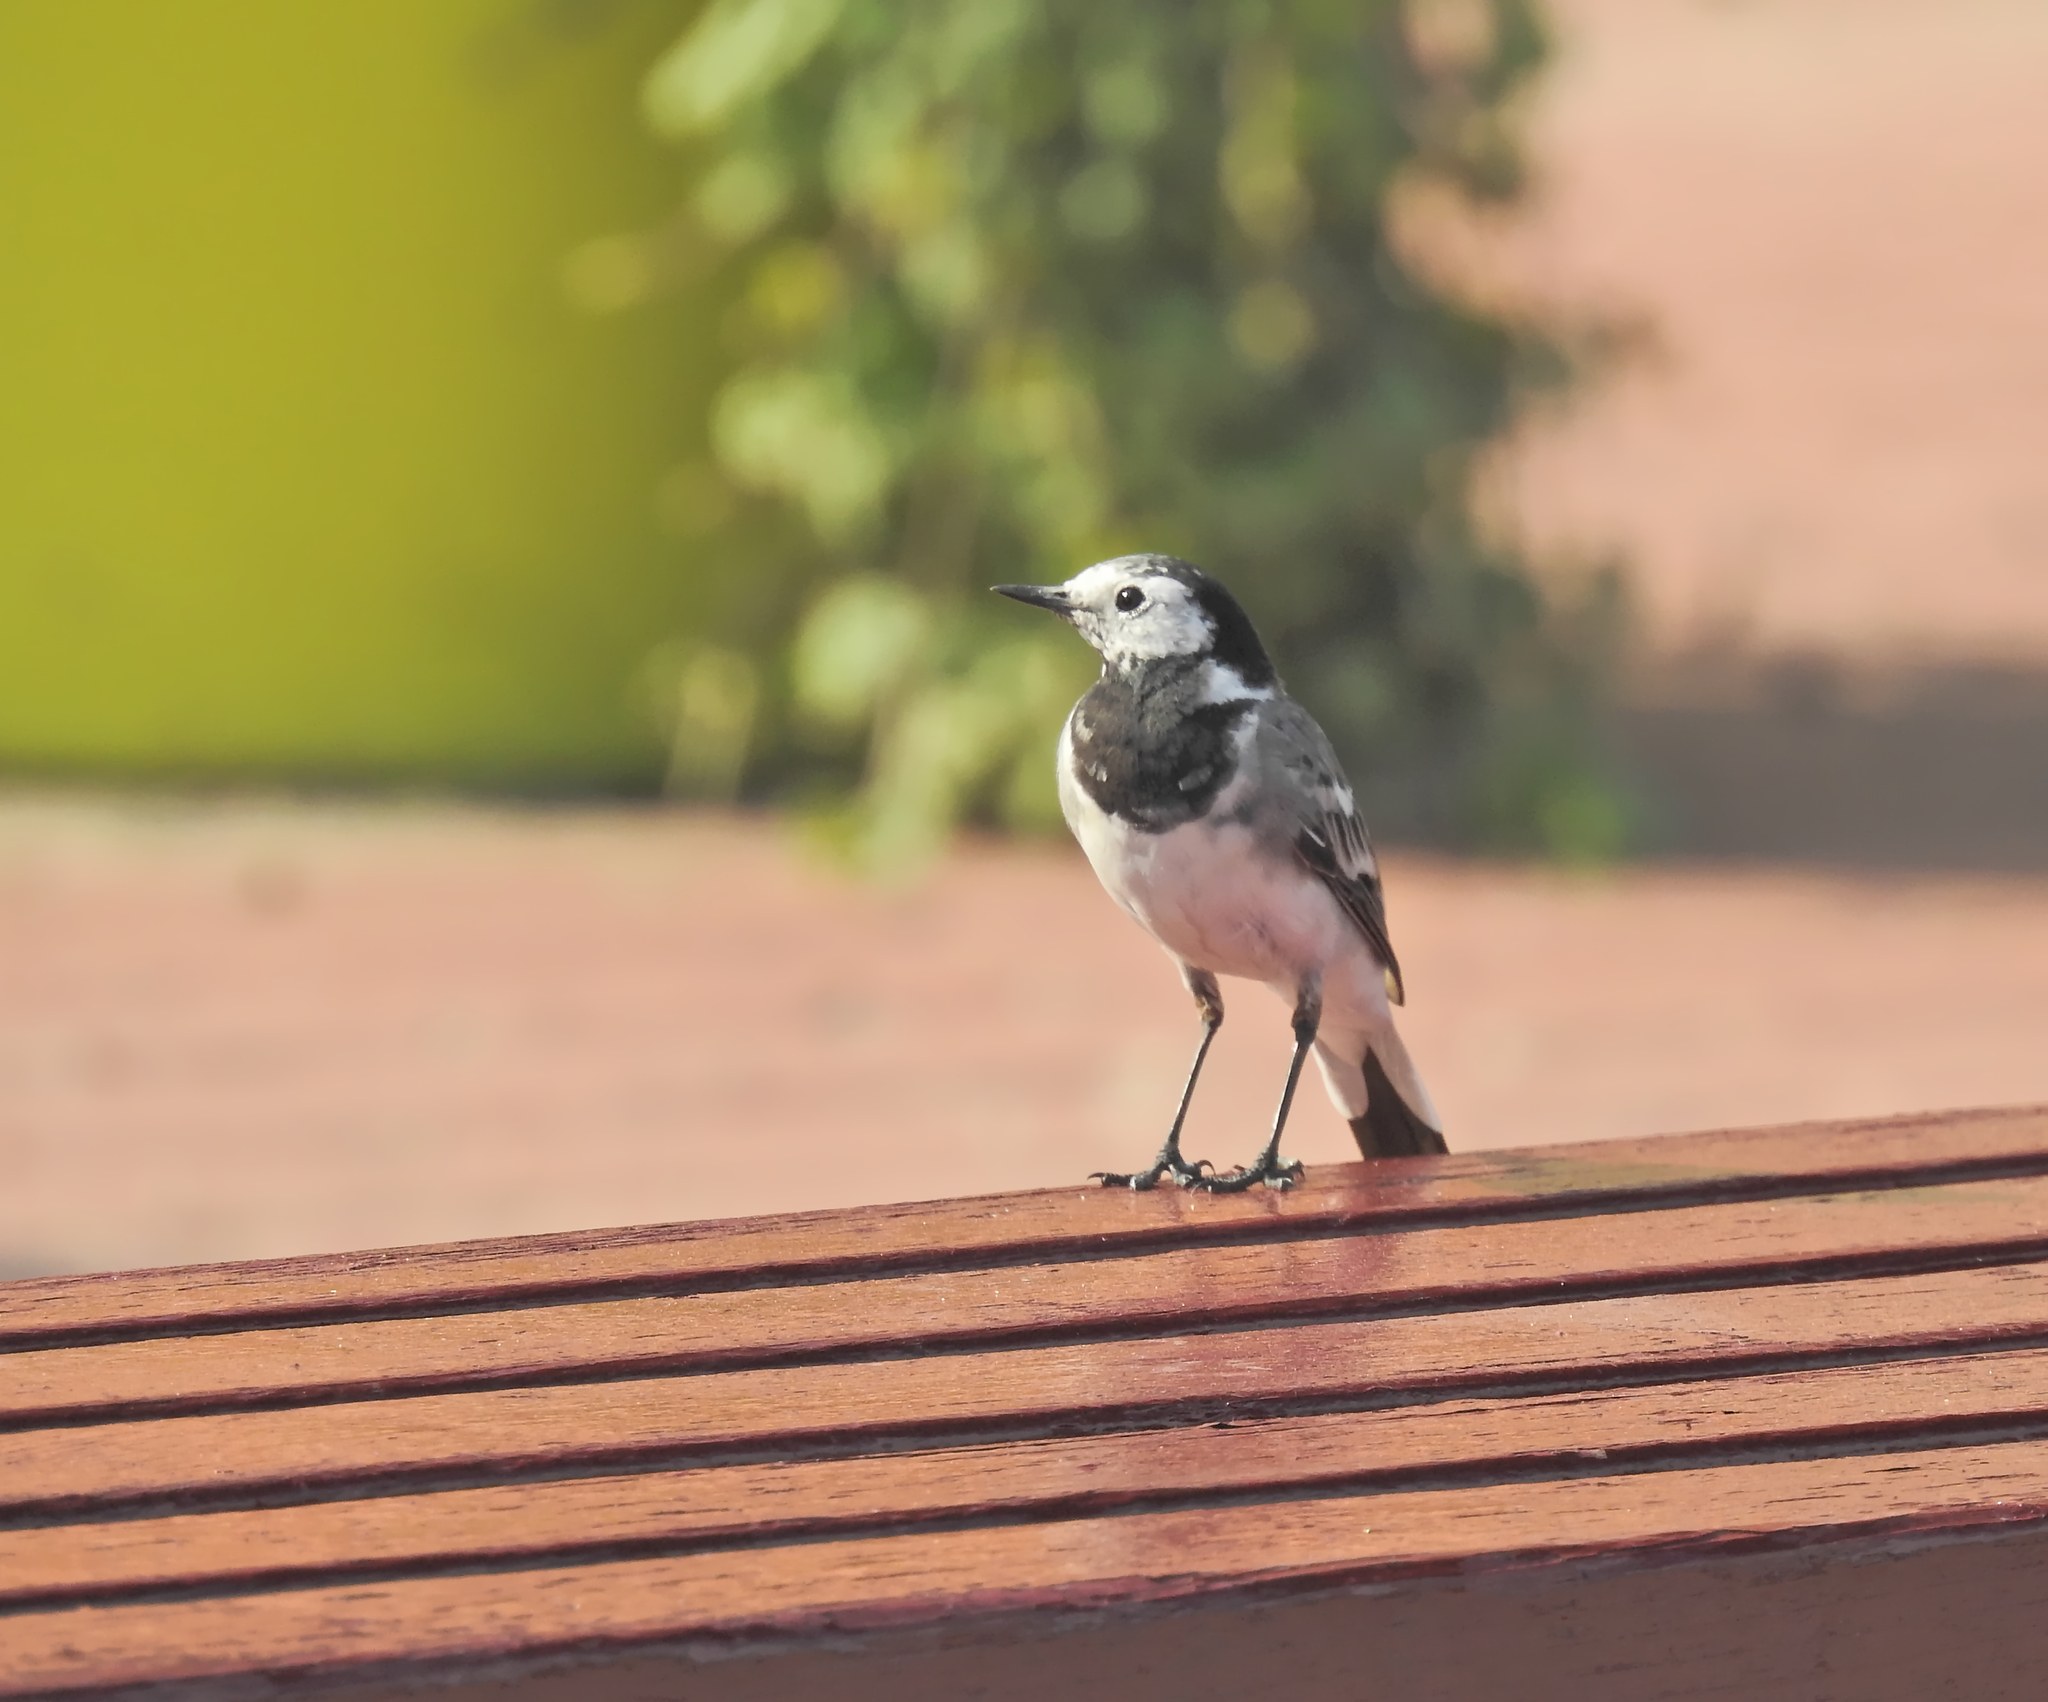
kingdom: Animalia
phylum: Chordata
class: Aves
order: Passeriformes
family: Motacillidae
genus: Motacilla
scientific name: Motacilla alba
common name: White wagtail
